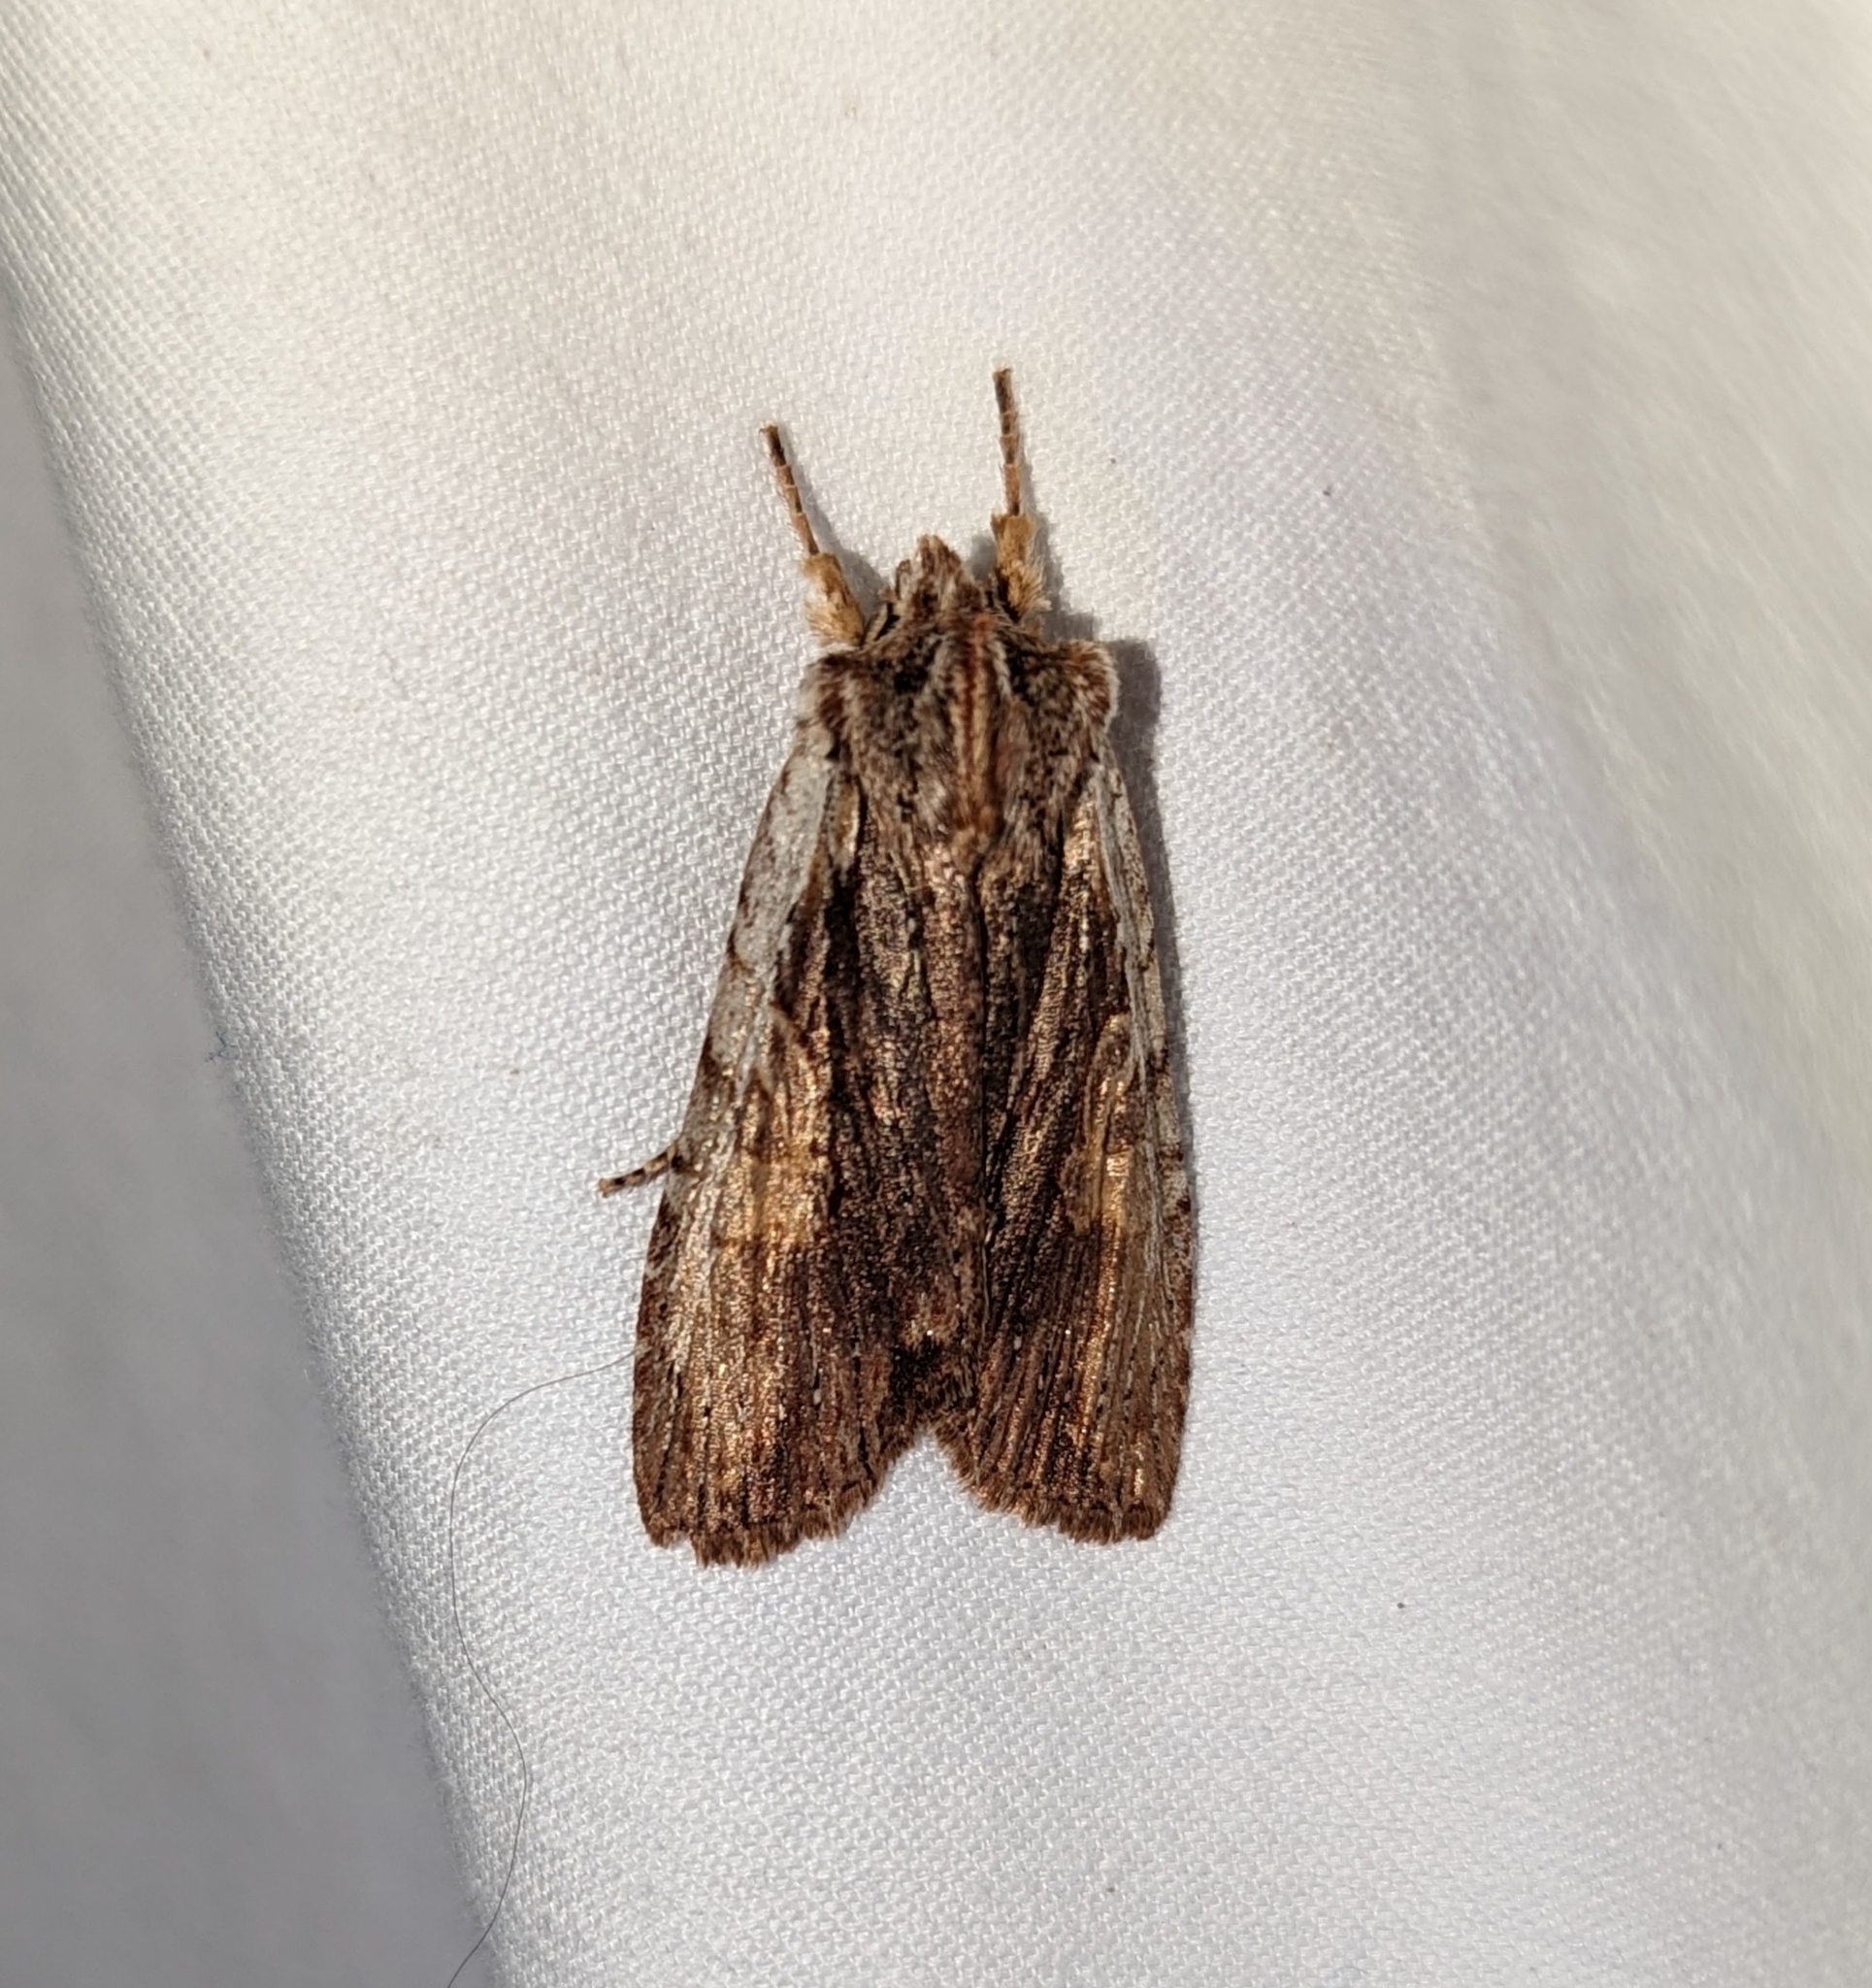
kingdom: Animalia
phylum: Arthropoda
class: Insecta
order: Lepidoptera
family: Noctuidae
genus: Lithophane
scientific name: Lithophane petulca
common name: Wanton pinion
